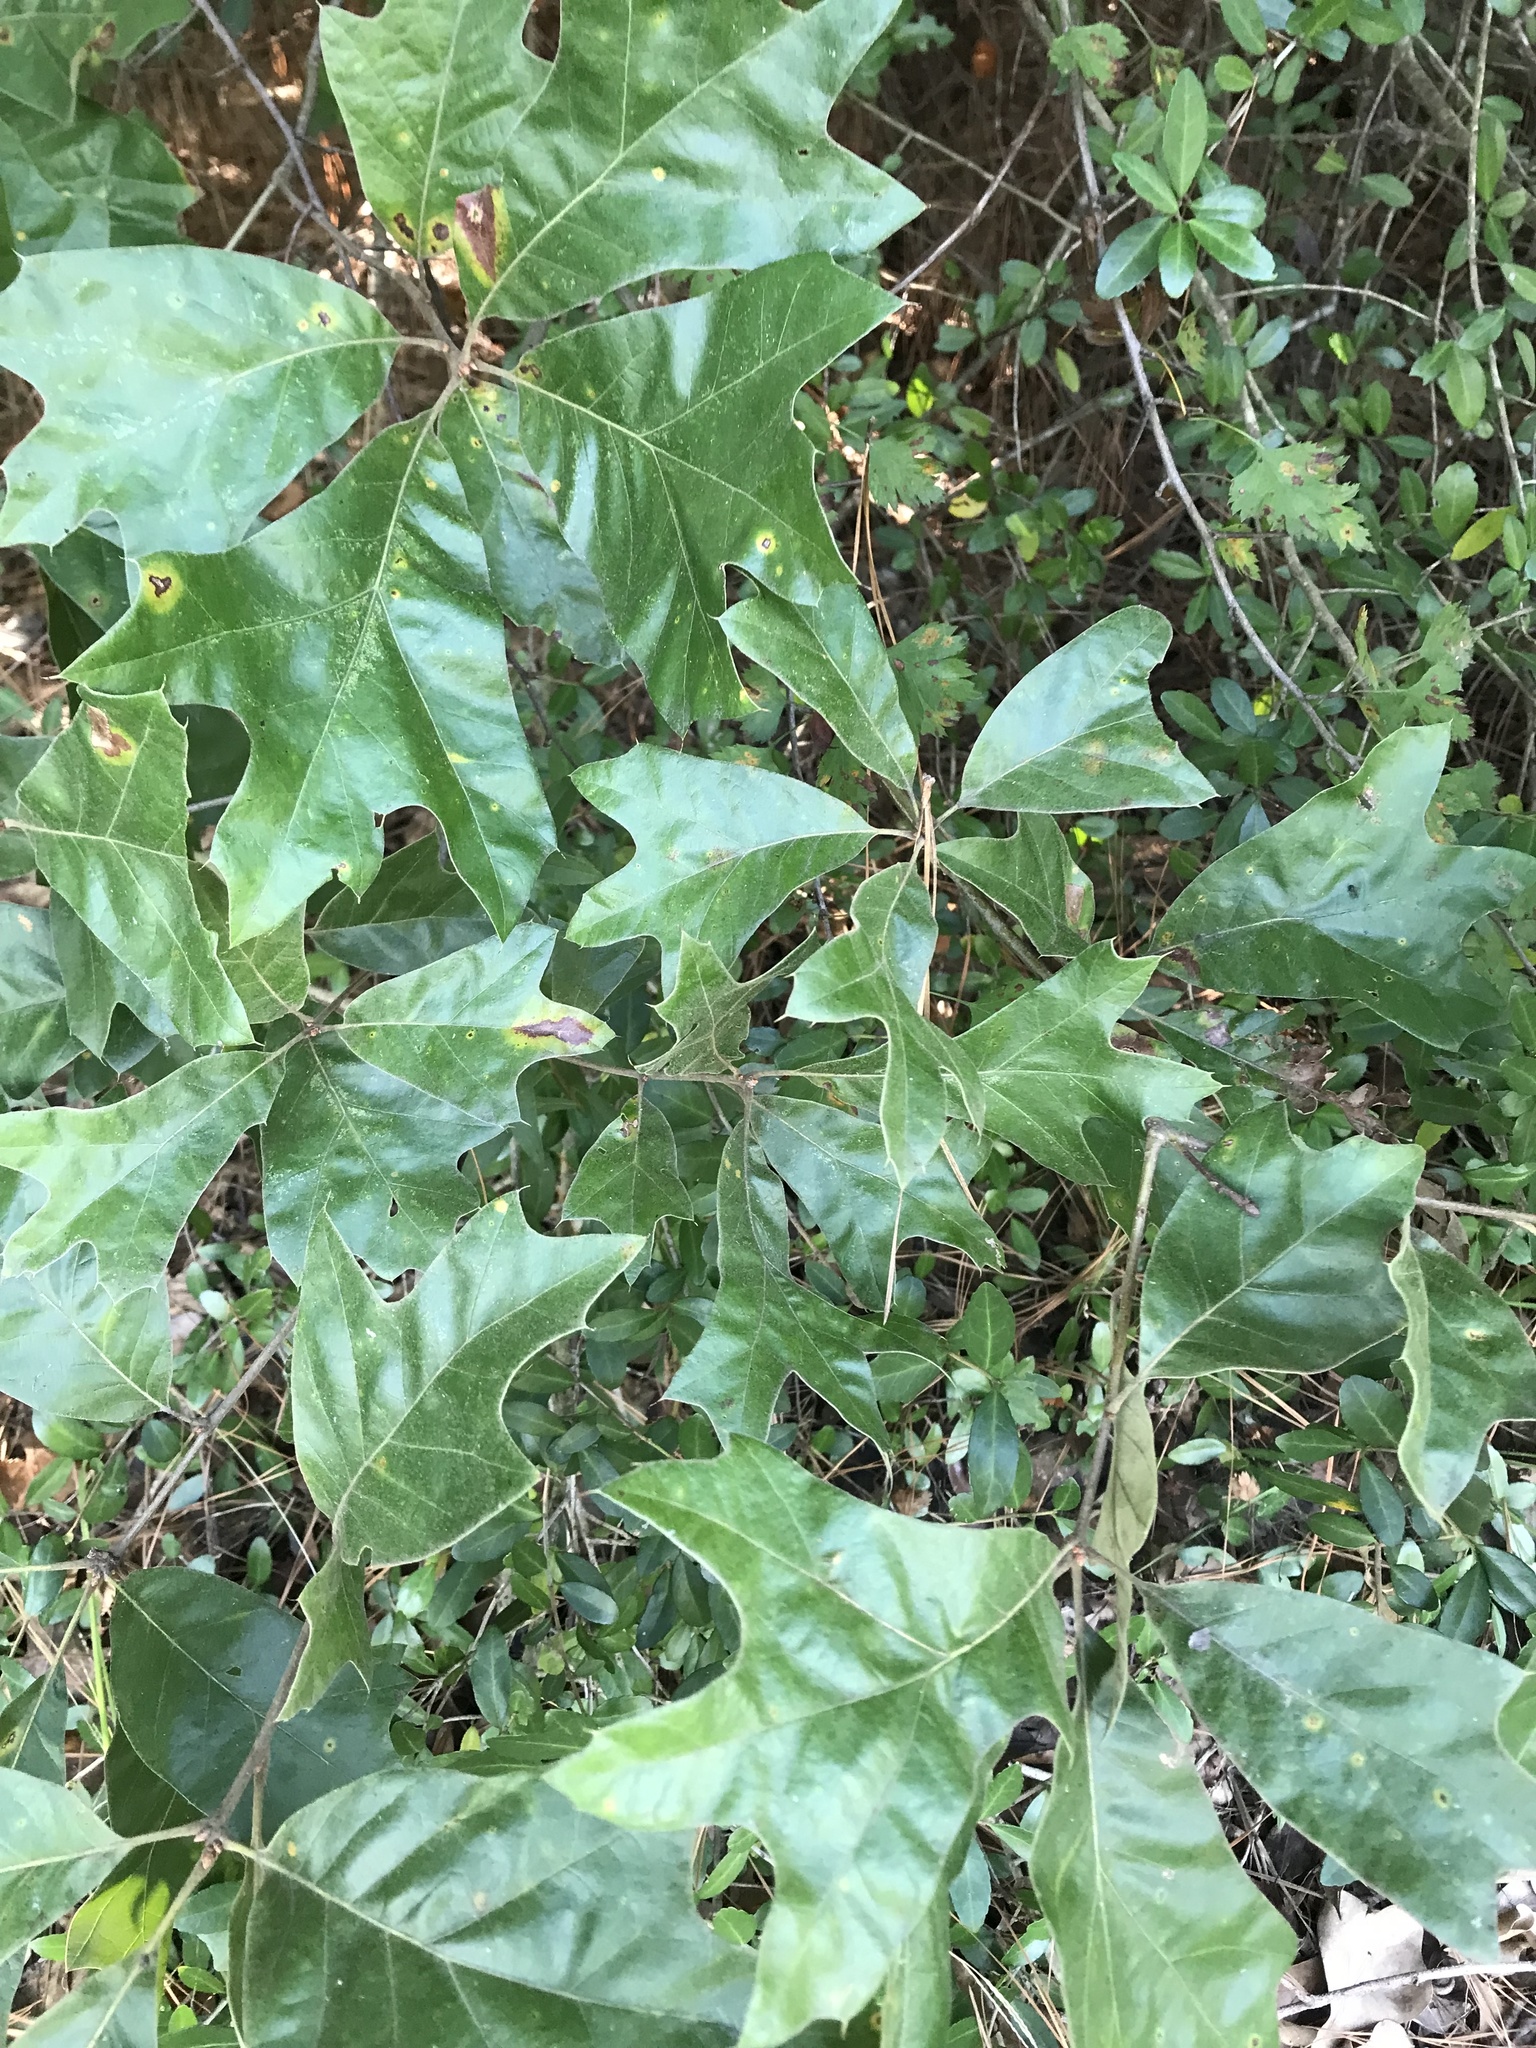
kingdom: Plantae
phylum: Tracheophyta
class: Magnoliopsida
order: Fagales
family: Fagaceae
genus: Quercus
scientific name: Quercus falcata
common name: Southern red oak
